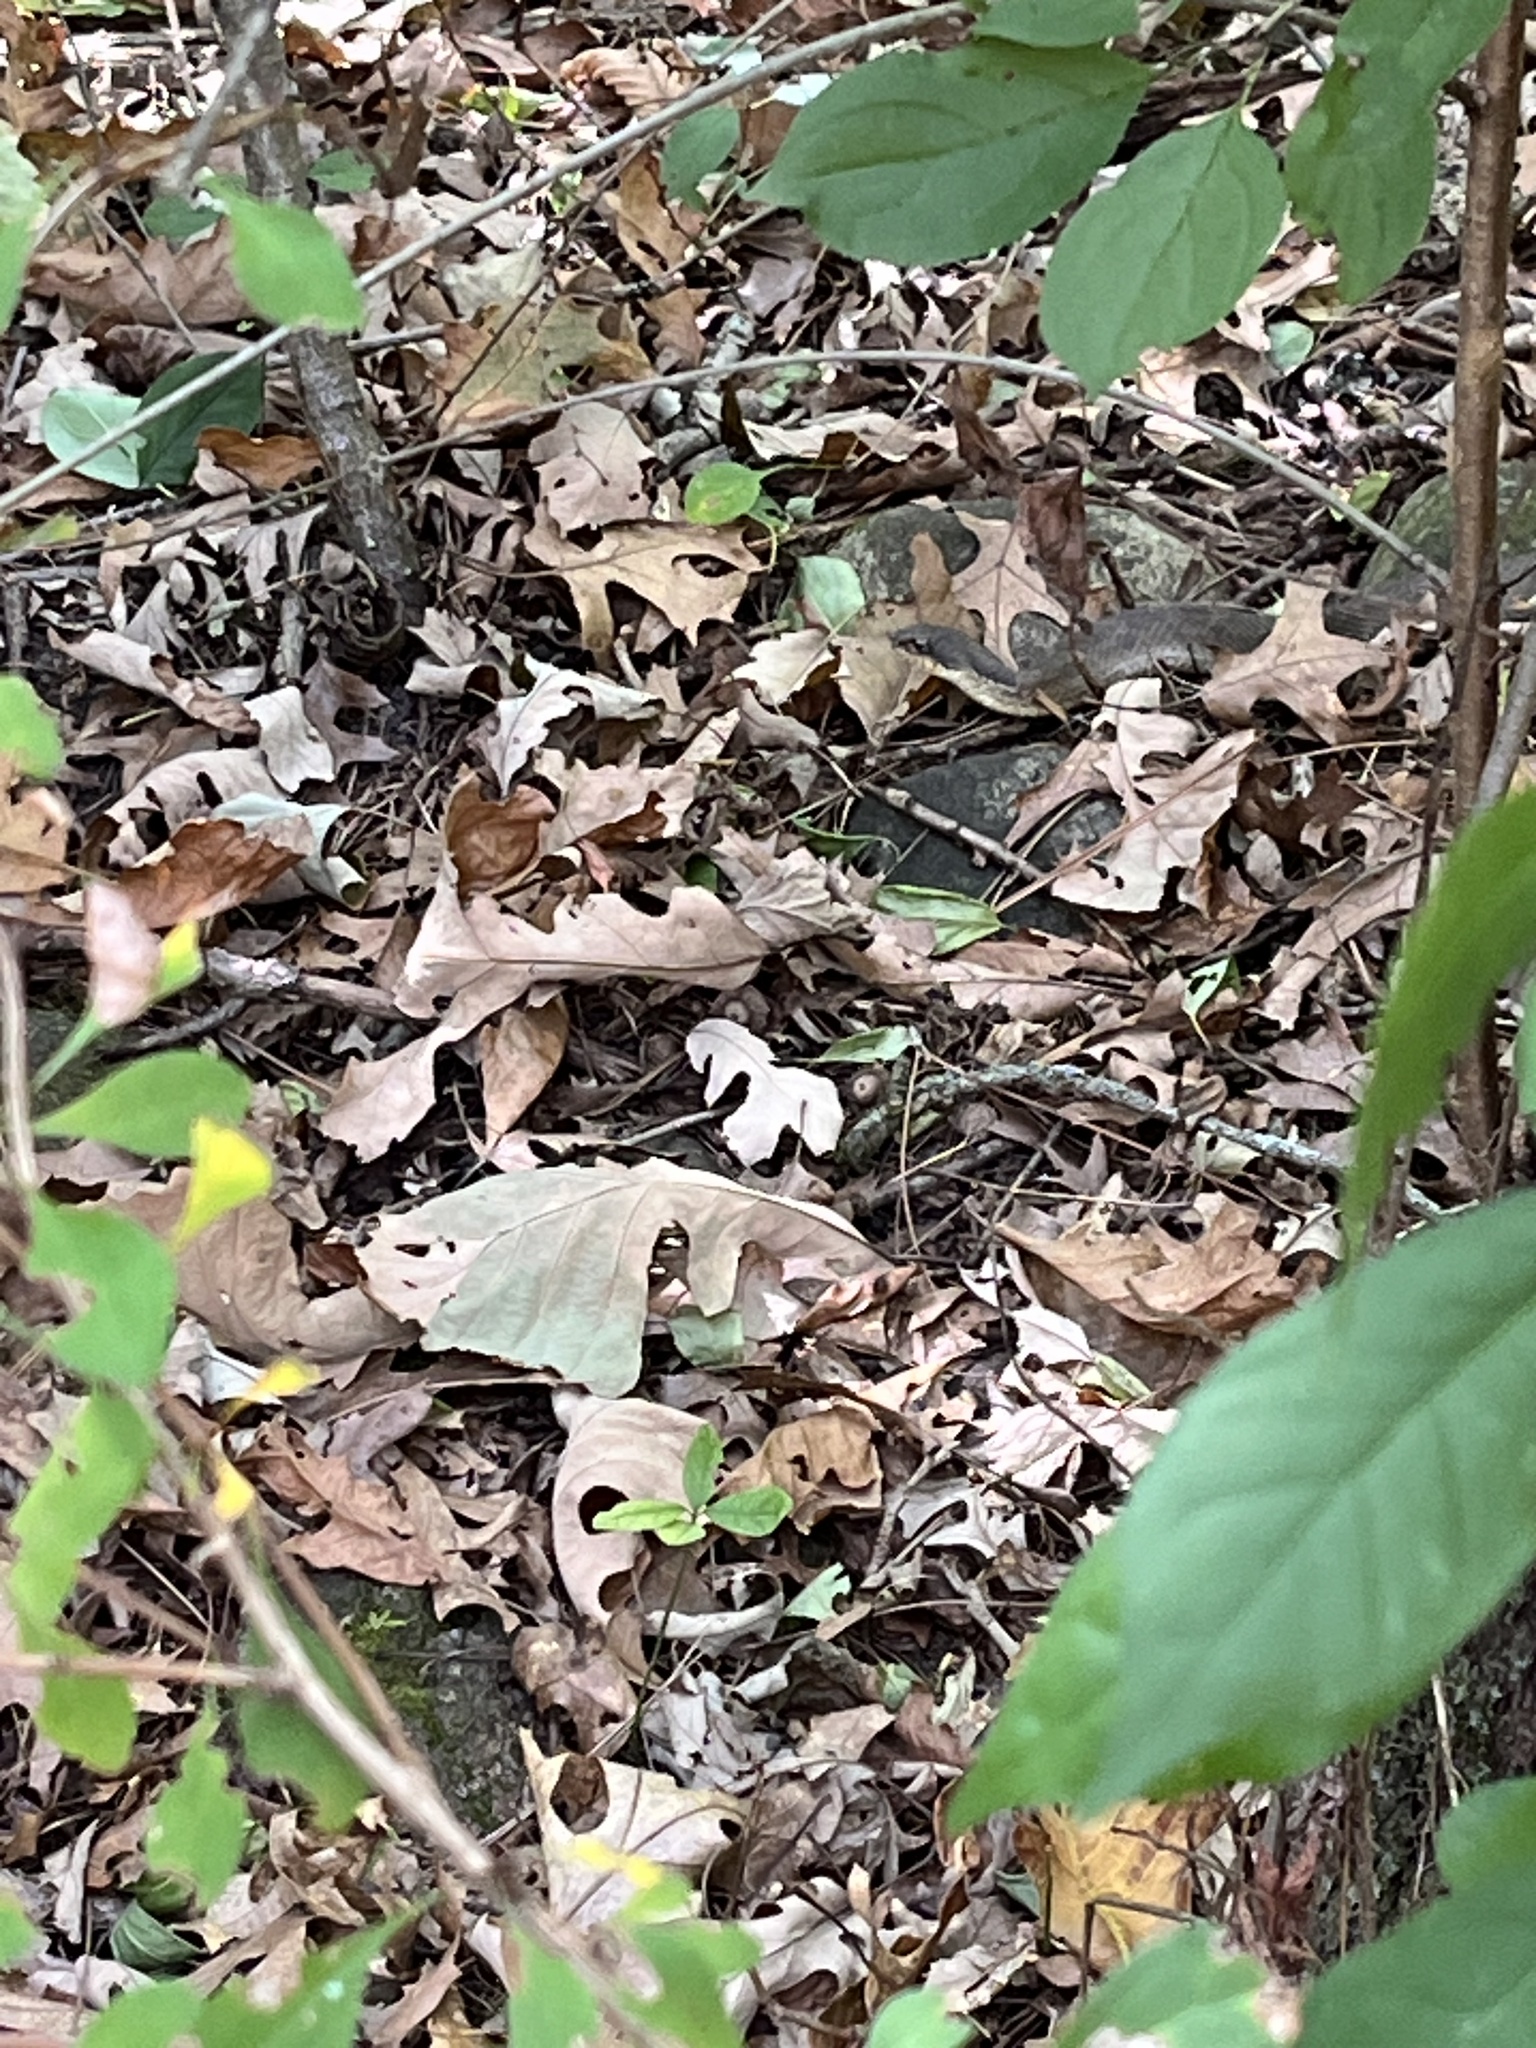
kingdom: Animalia
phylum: Chordata
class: Squamata
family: Colubridae
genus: Heterodon
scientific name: Heterodon platirhinos
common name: Eastern hognose snake
